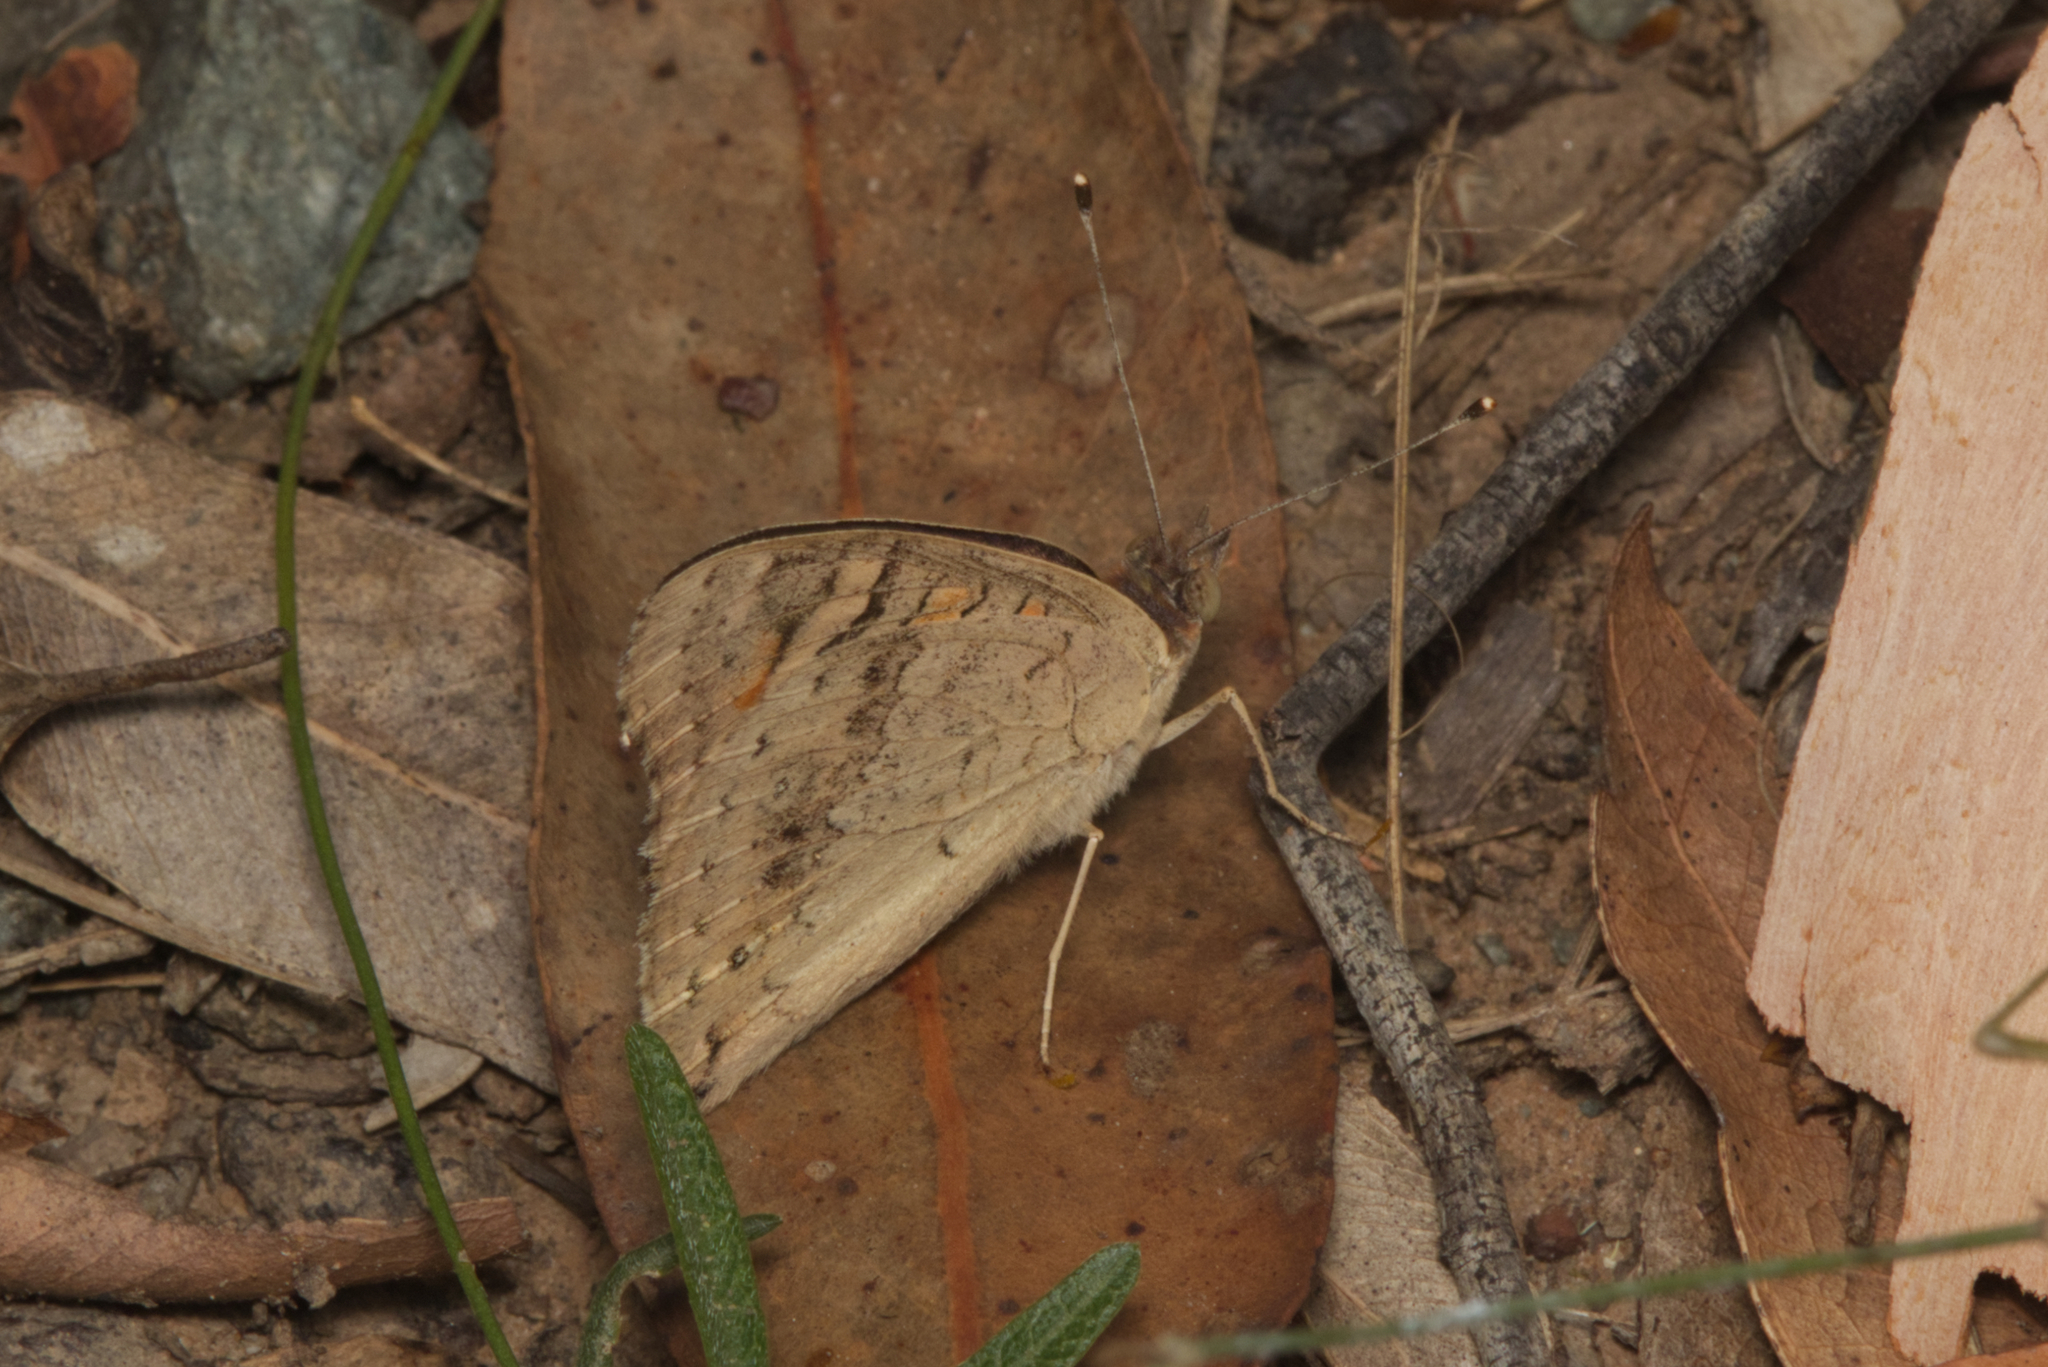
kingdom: Animalia
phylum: Arthropoda
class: Insecta
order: Lepidoptera
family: Nymphalidae
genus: Junonia
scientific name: Junonia villida
